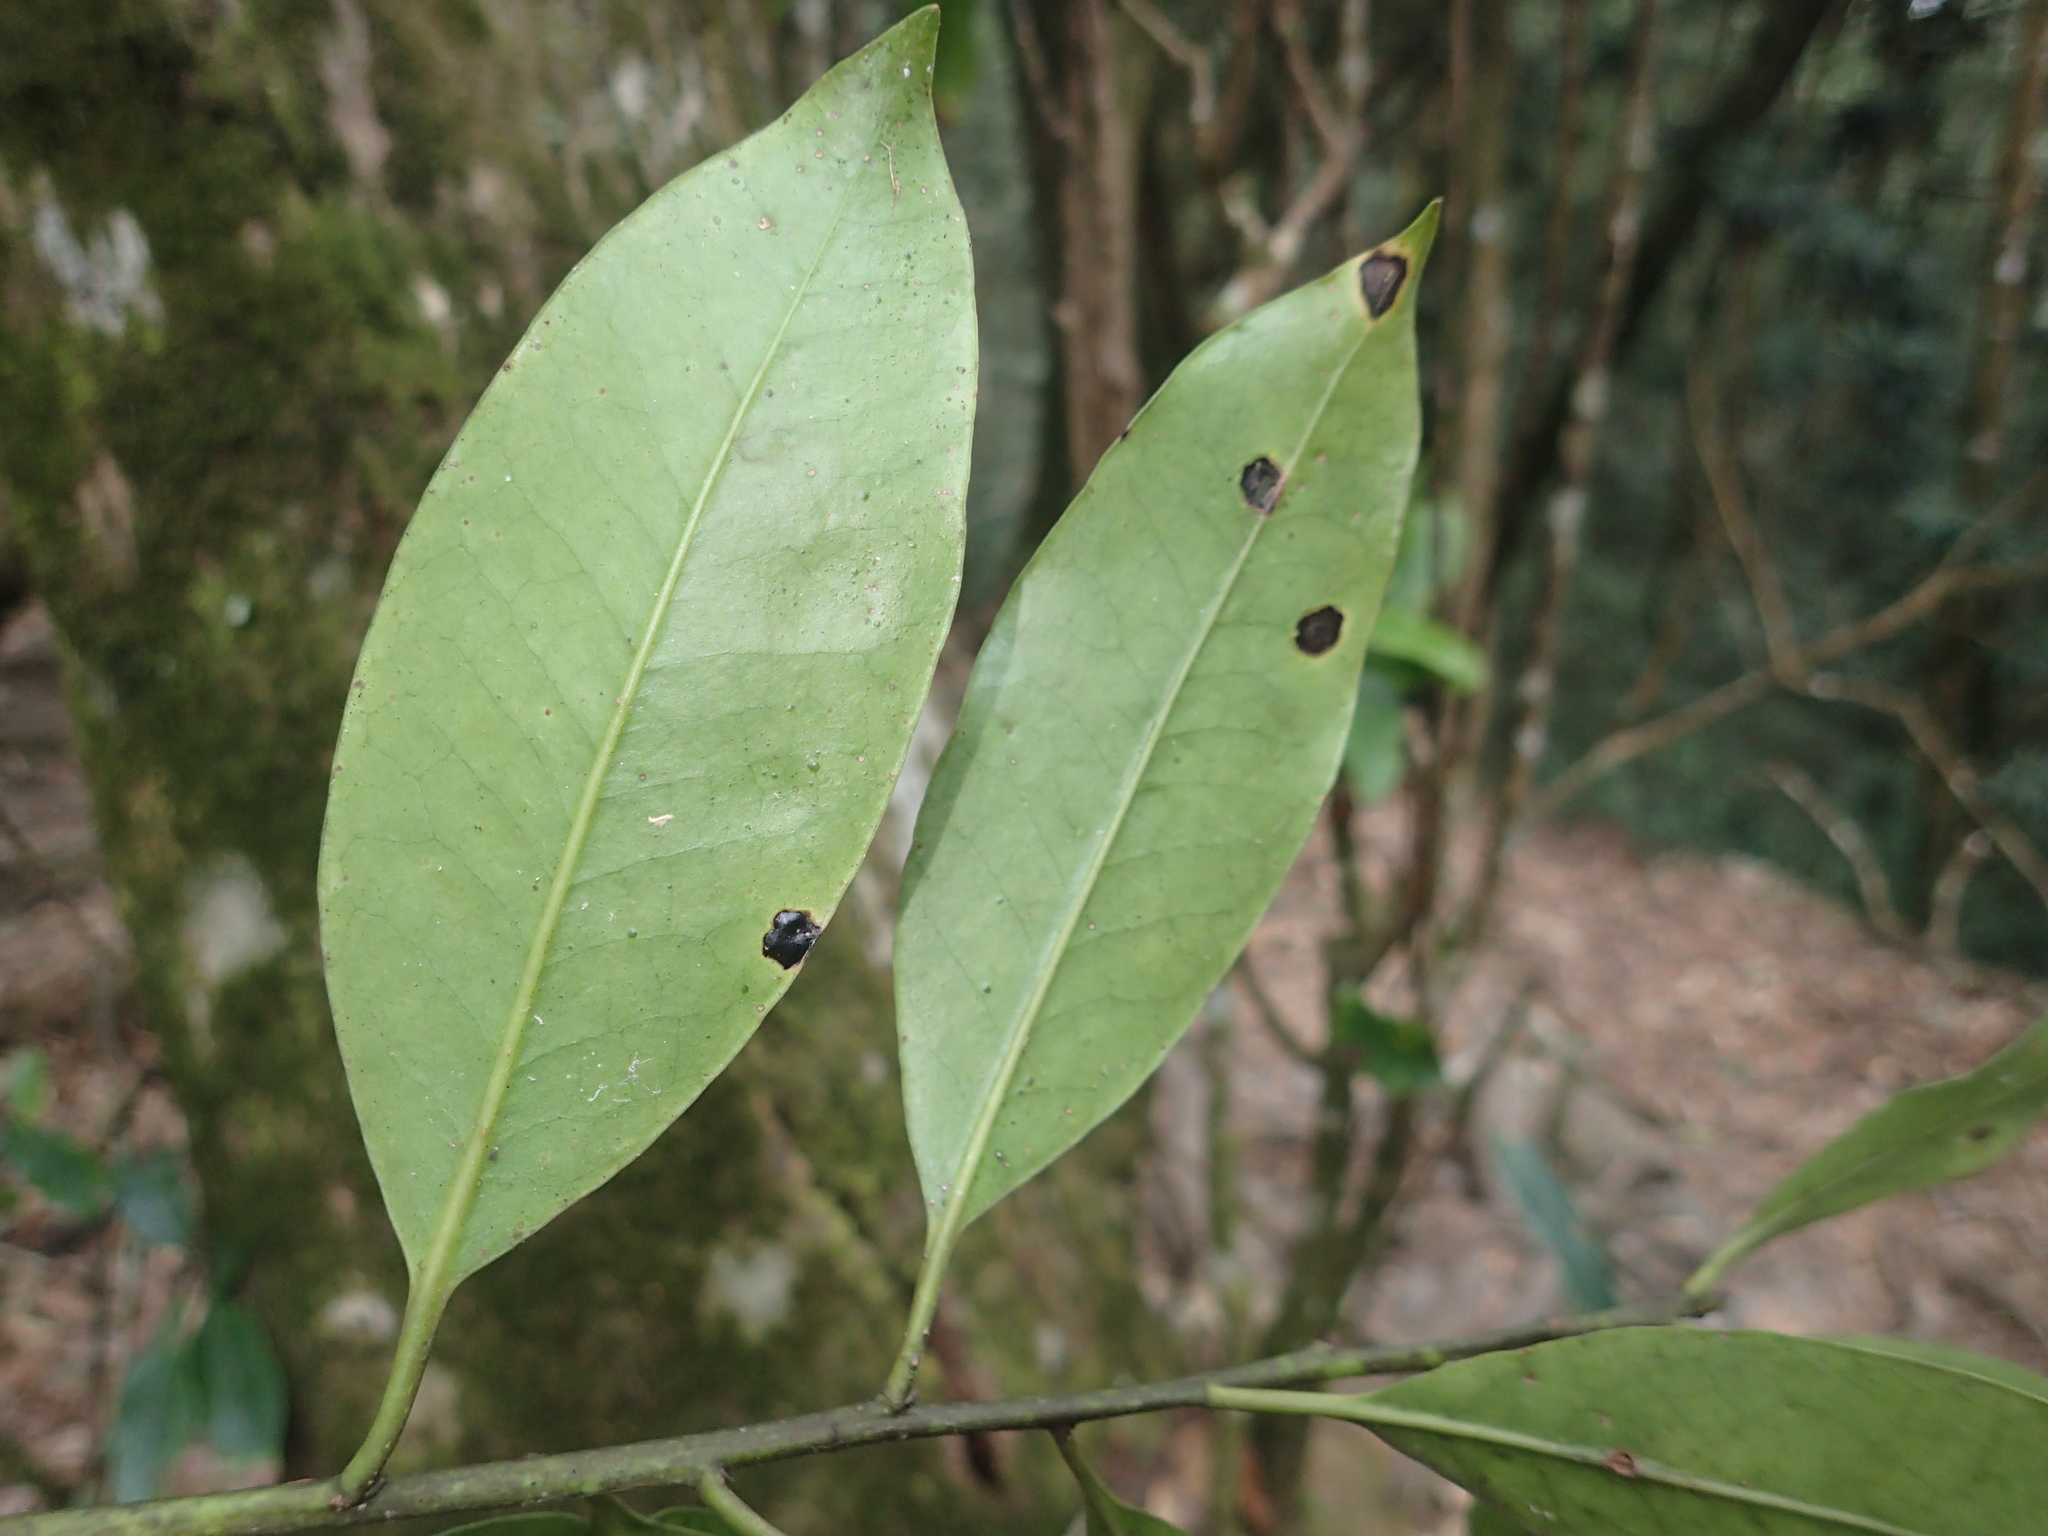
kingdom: Plantae
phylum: Tracheophyta
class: Magnoliopsida
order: Aquifoliales
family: Aquifoliaceae
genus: Ilex
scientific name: Ilex tugitakayamensis
